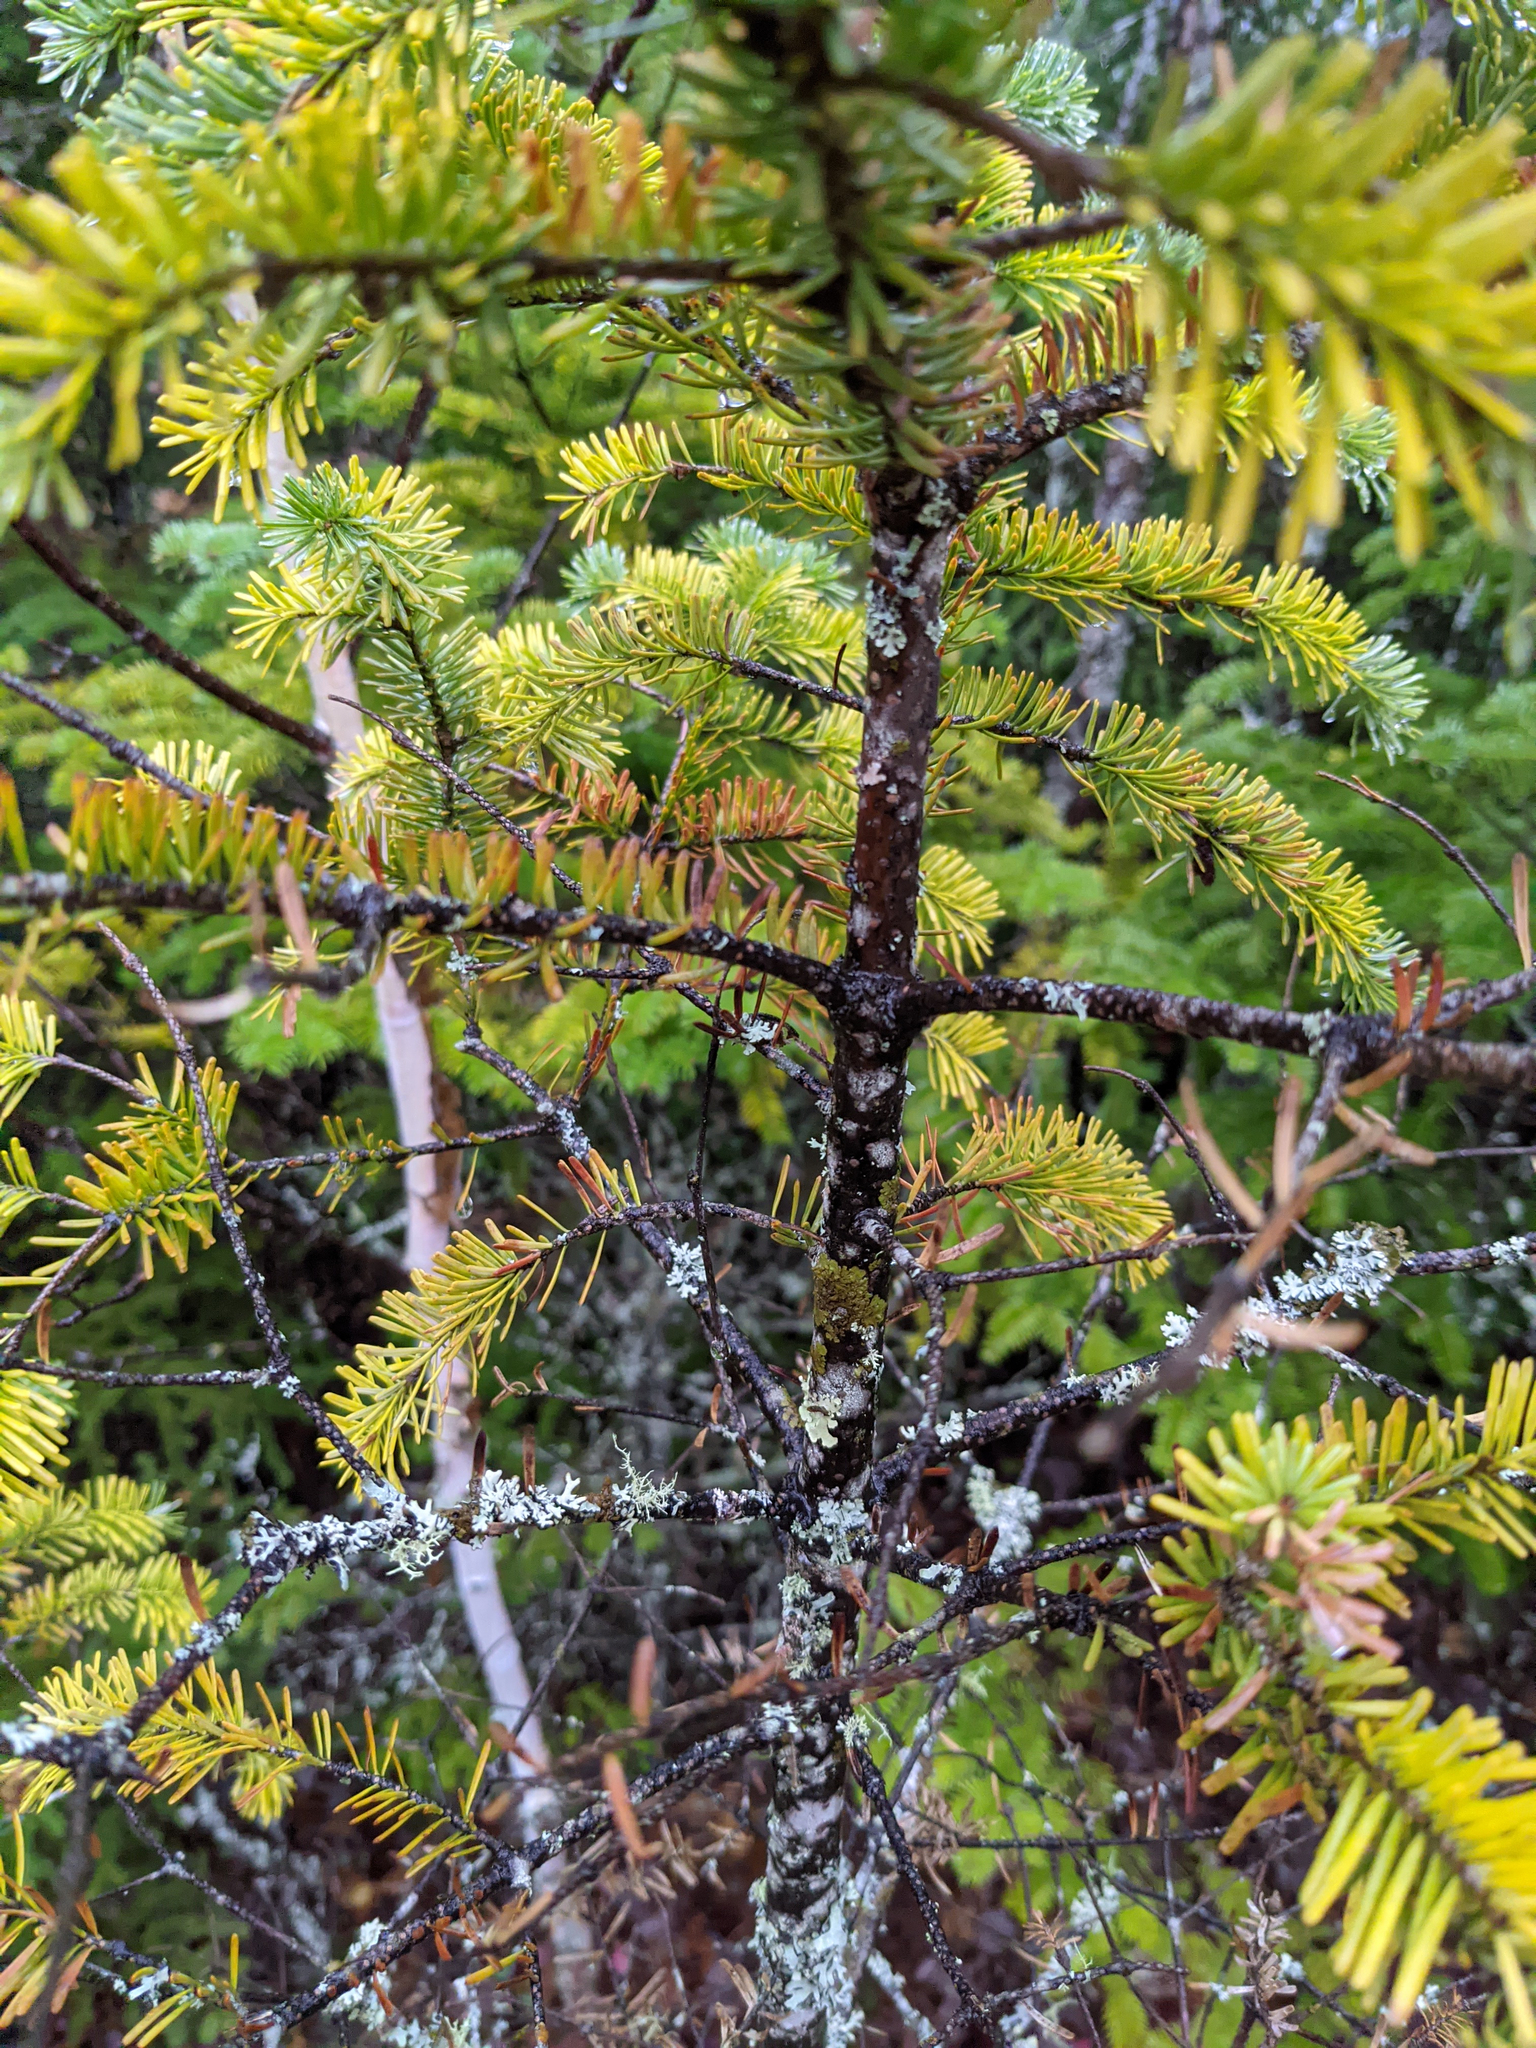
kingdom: Plantae
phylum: Tracheophyta
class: Pinopsida
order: Pinales
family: Pinaceae
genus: Abies
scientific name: Abies balsamea
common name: Balsam fir
